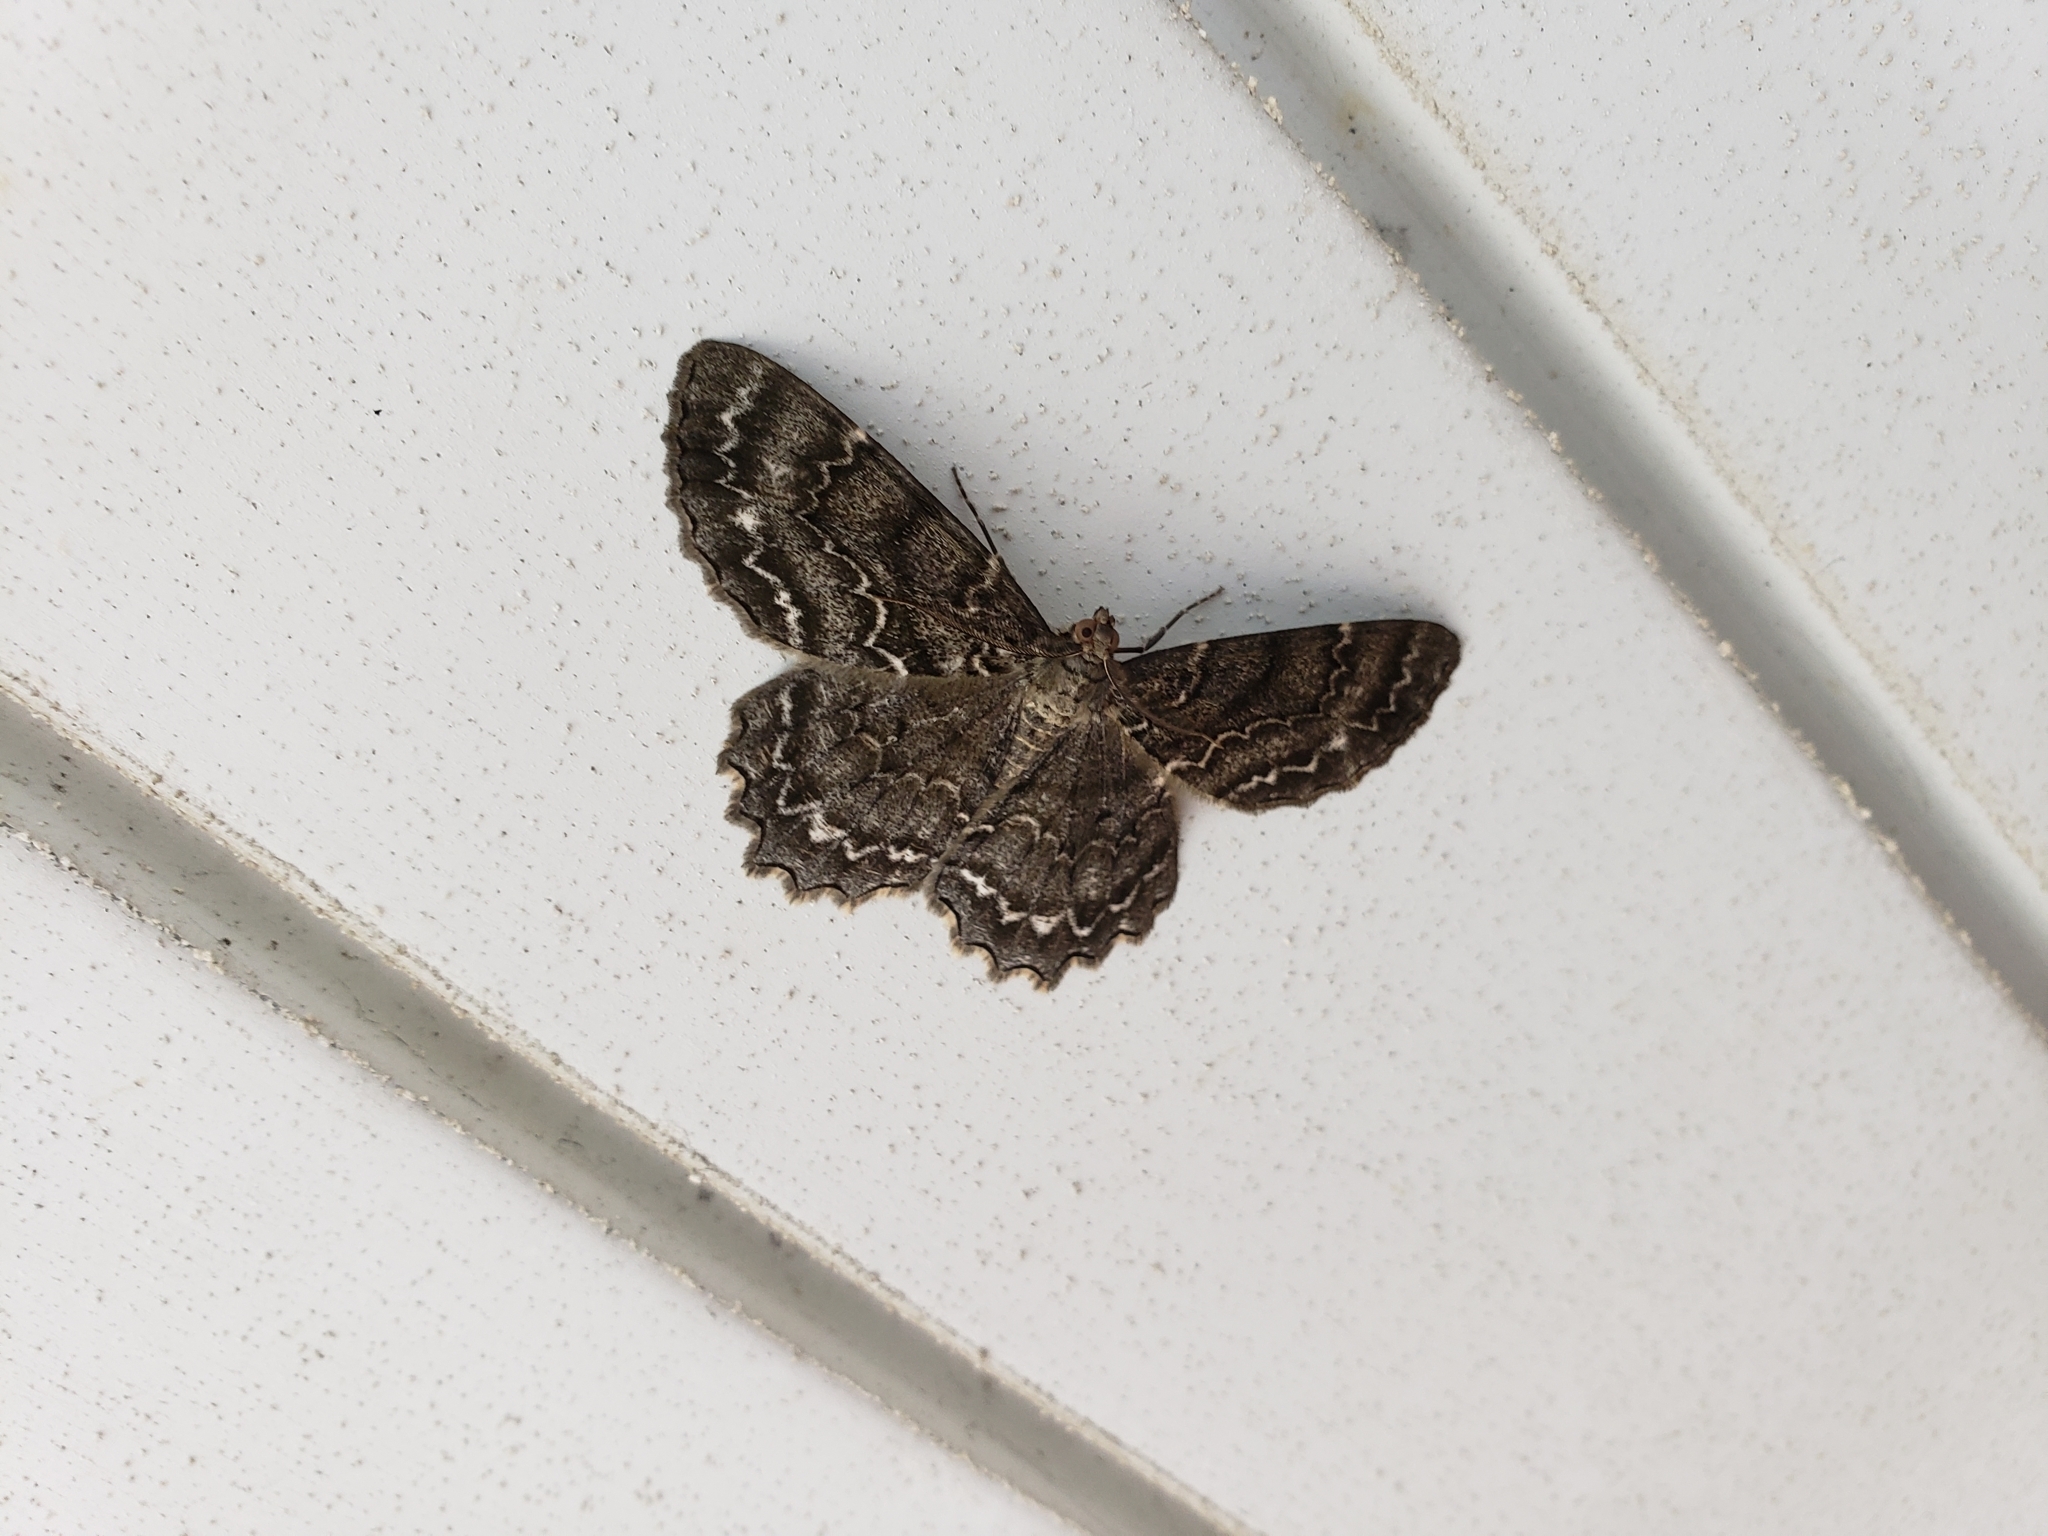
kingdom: Animalia
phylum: Arthropoda
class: Insecta
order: Lepidoptera
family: Geometridae
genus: Epimecis
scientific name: Epimecis hortaria
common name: Tulip-tree beauty
